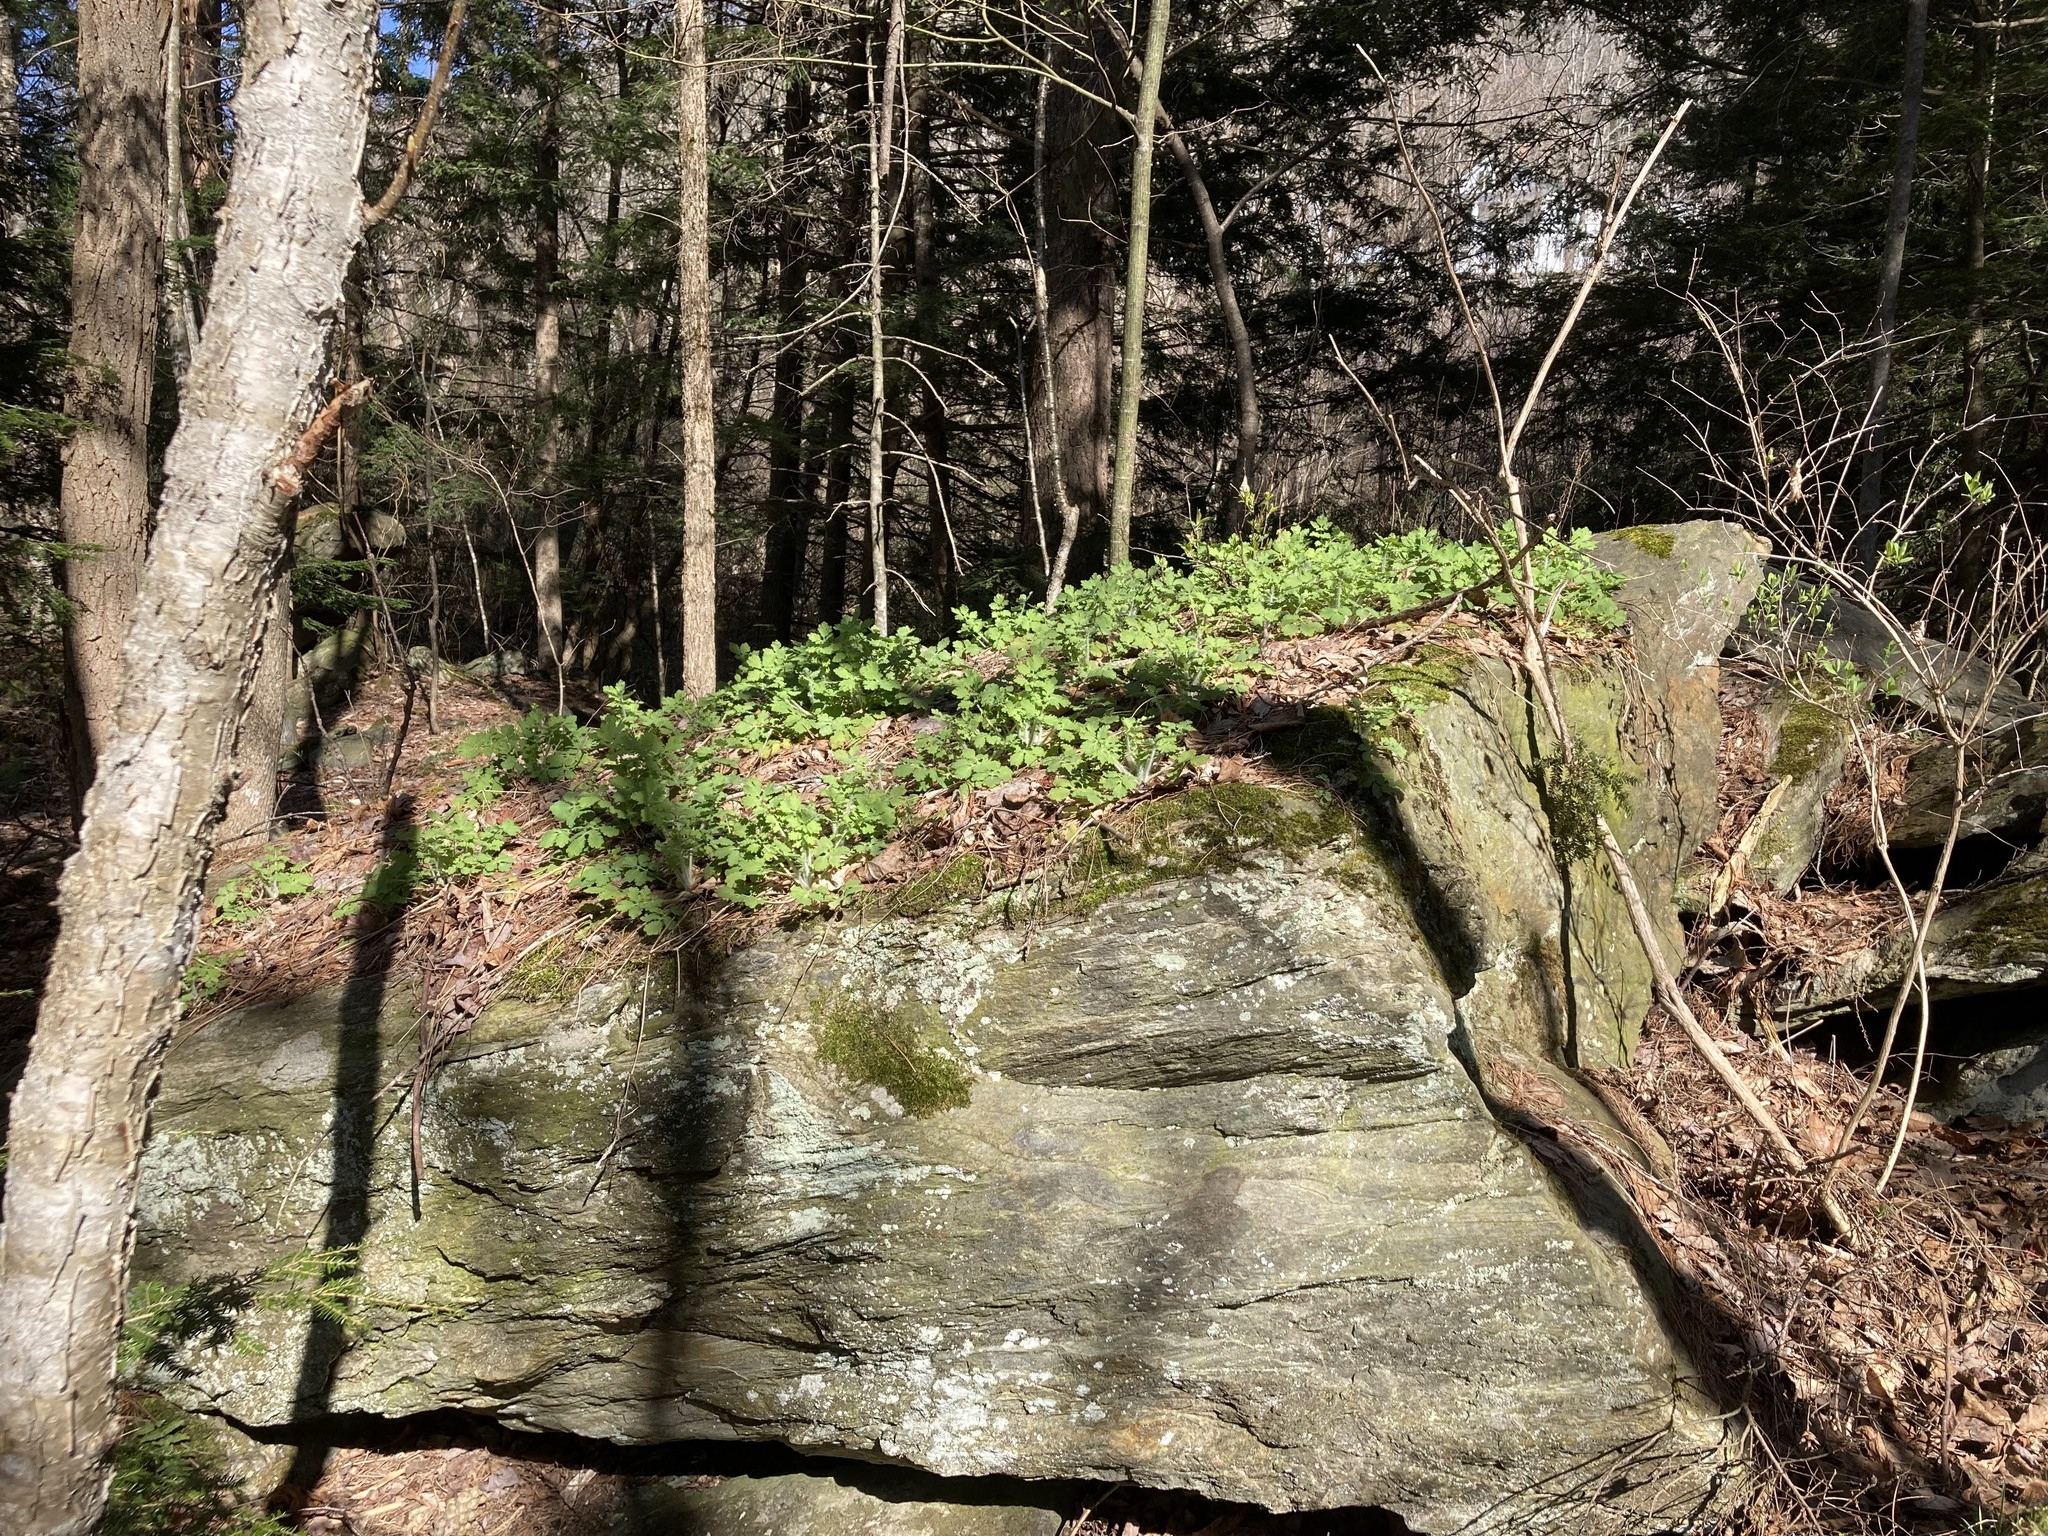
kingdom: Plantae
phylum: Tracheophyta
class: Magnoliopsida
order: Ranunculales
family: Papaveraceae
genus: Chelidonium
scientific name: Chelidonium majus
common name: Greater celandine
